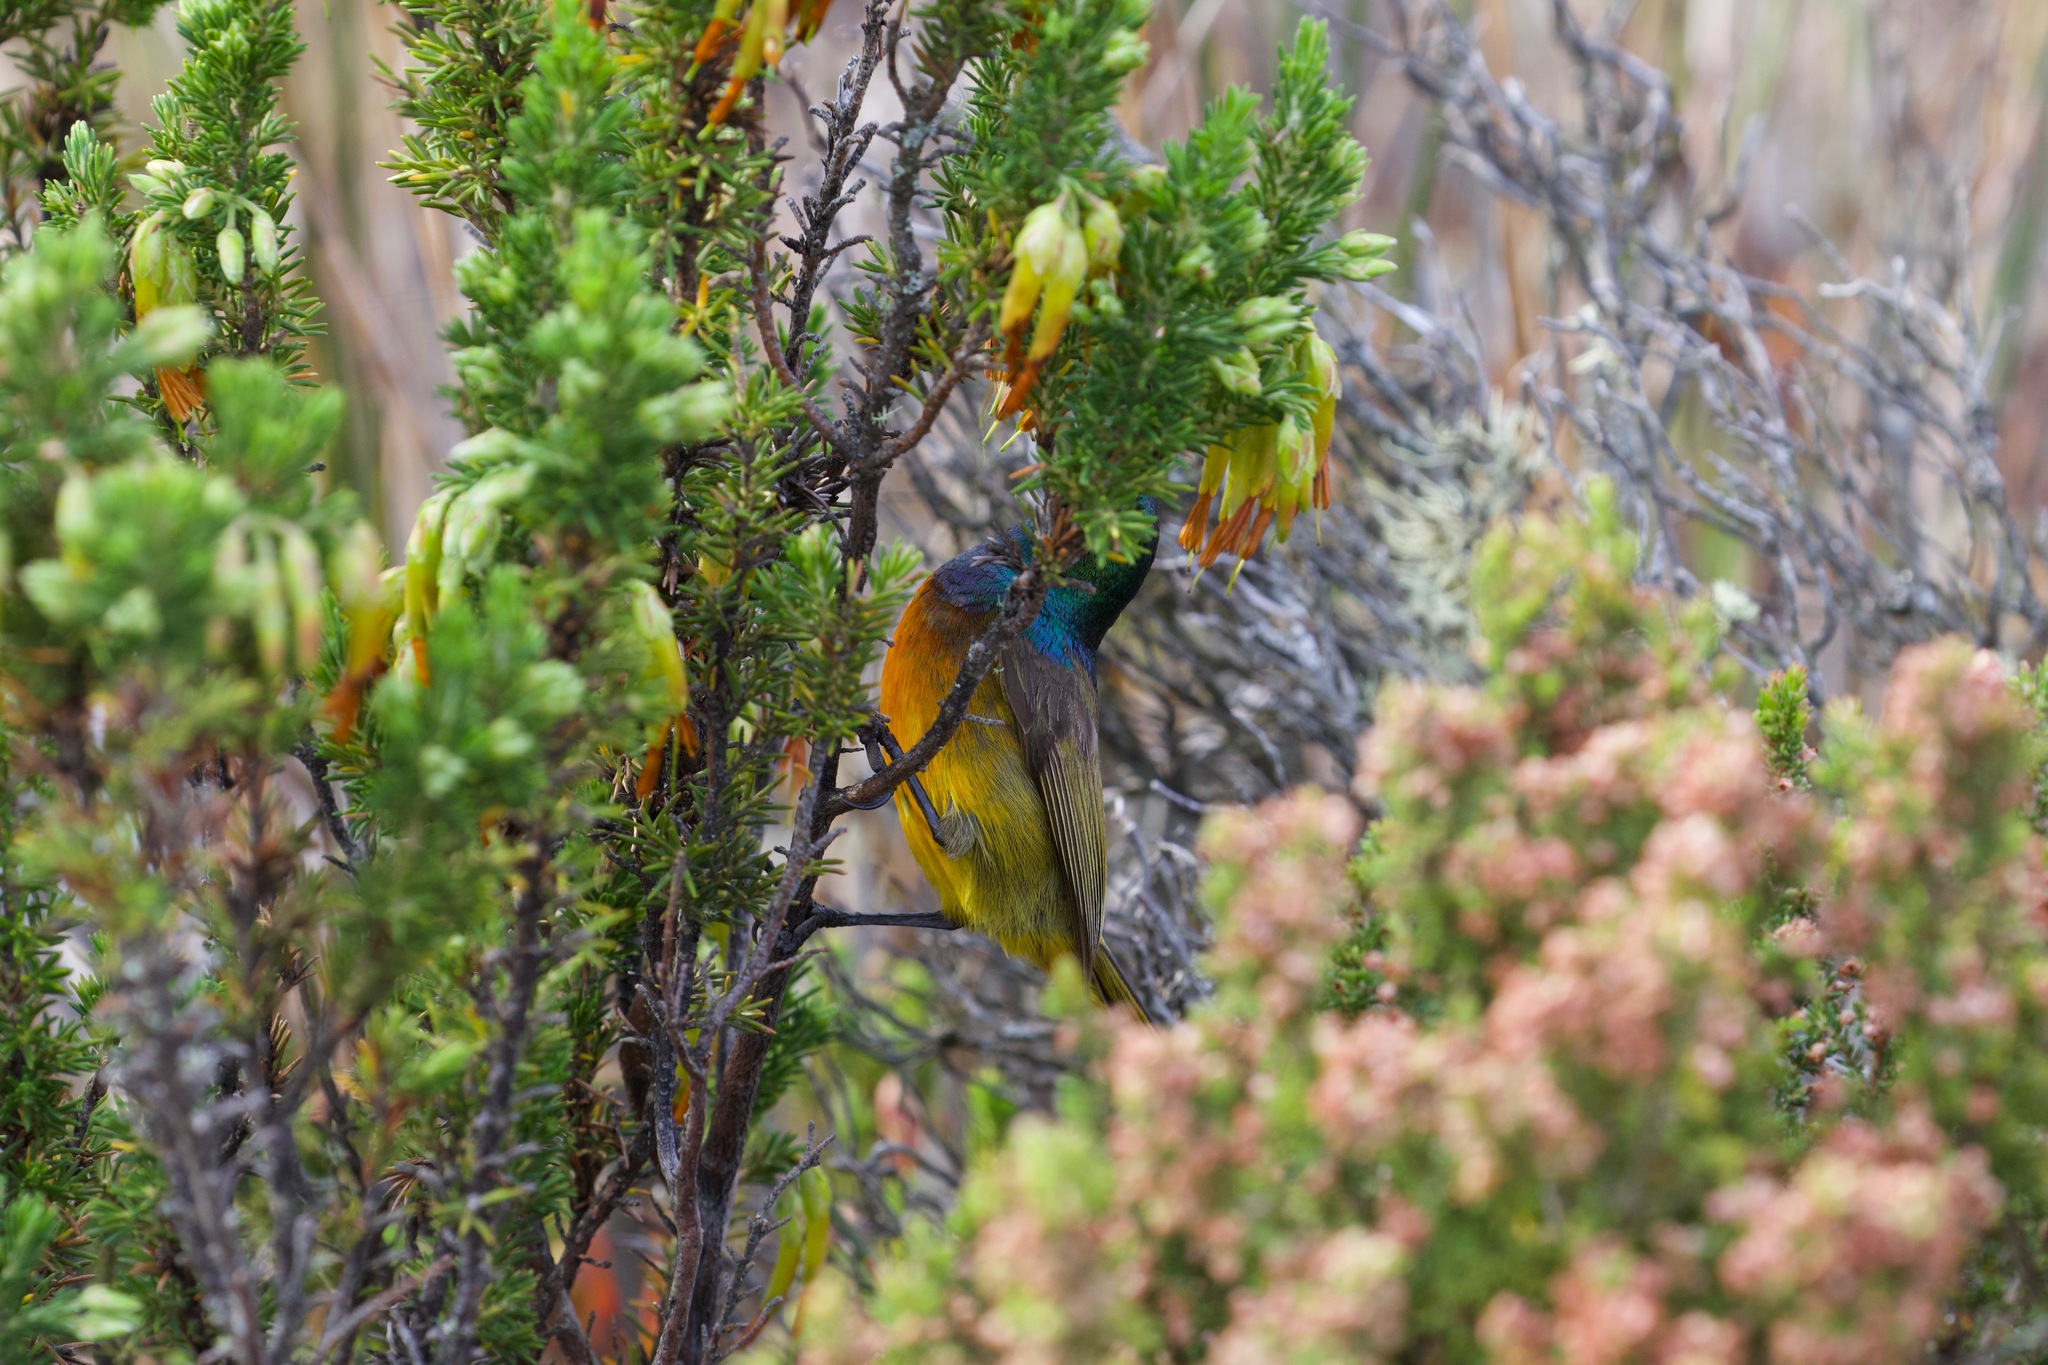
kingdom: Animalia
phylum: Chordata
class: Aves
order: Passeriformes
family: Nectariniidae
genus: Anthobaphes
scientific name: Anthobaphes violacea
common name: Orange-breasted sunbird
